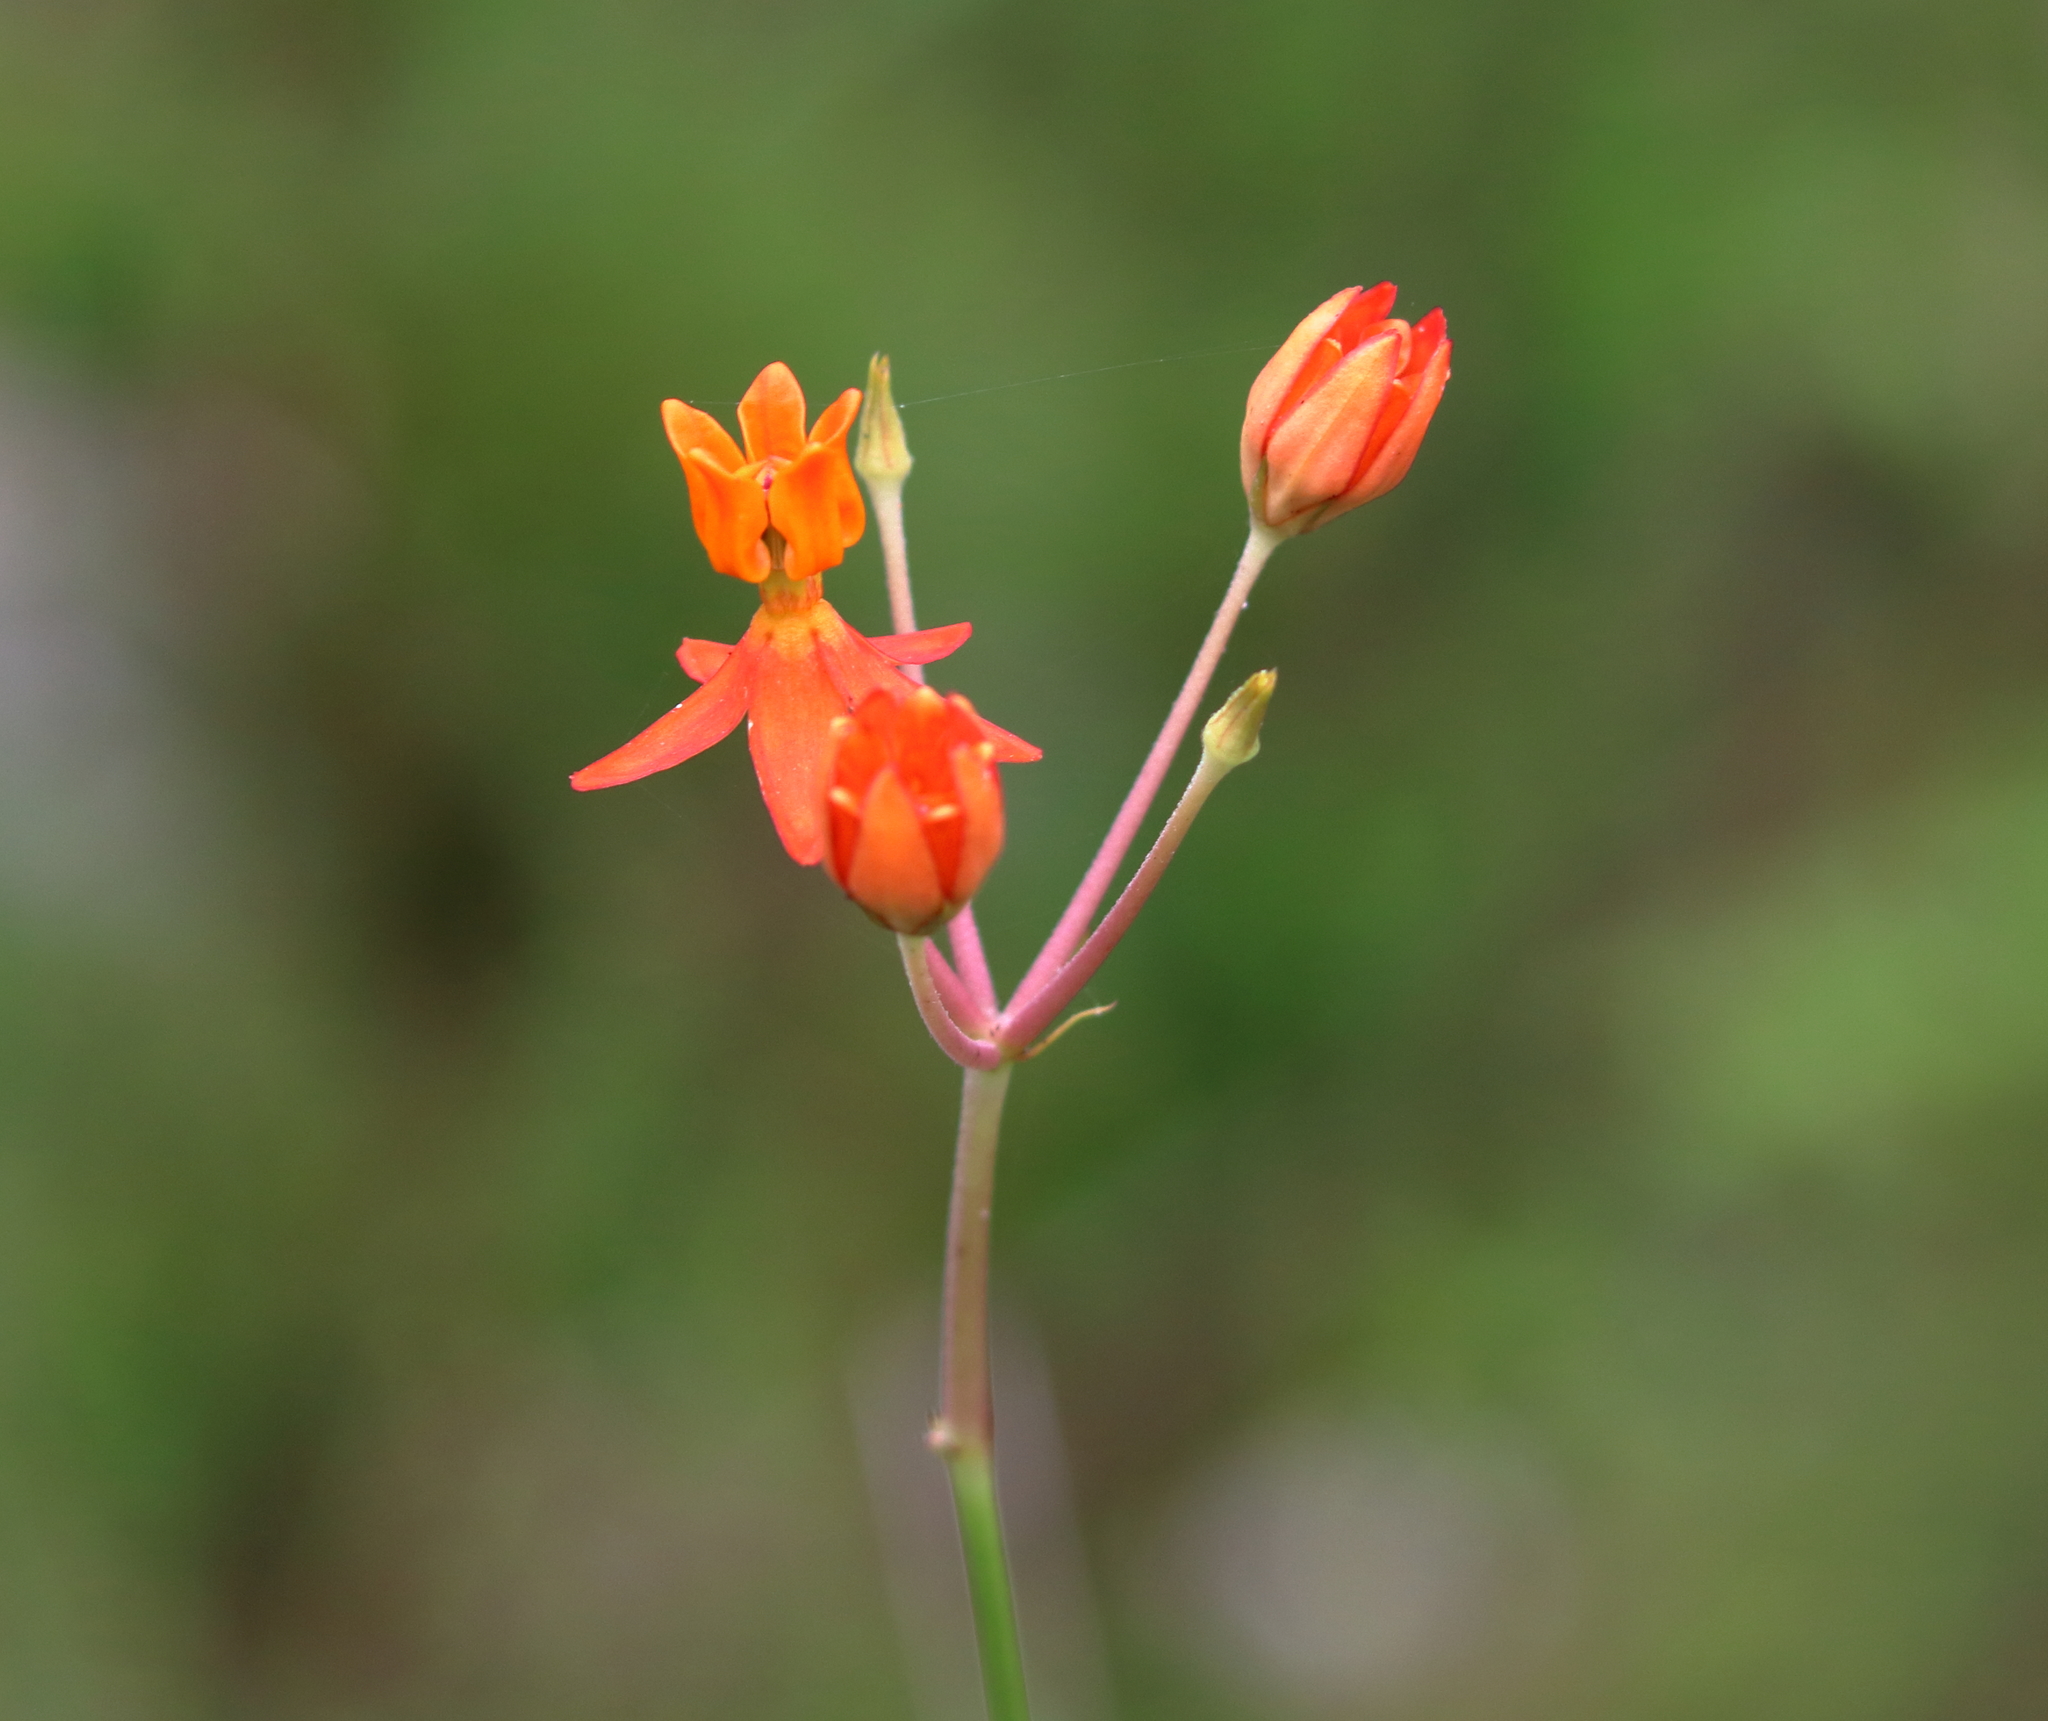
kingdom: Plantae
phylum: Tracheophyta
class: Magnoliopsida
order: Gentianales
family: Apocynaceae
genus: Asclepias
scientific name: Asclepias lanceolata
